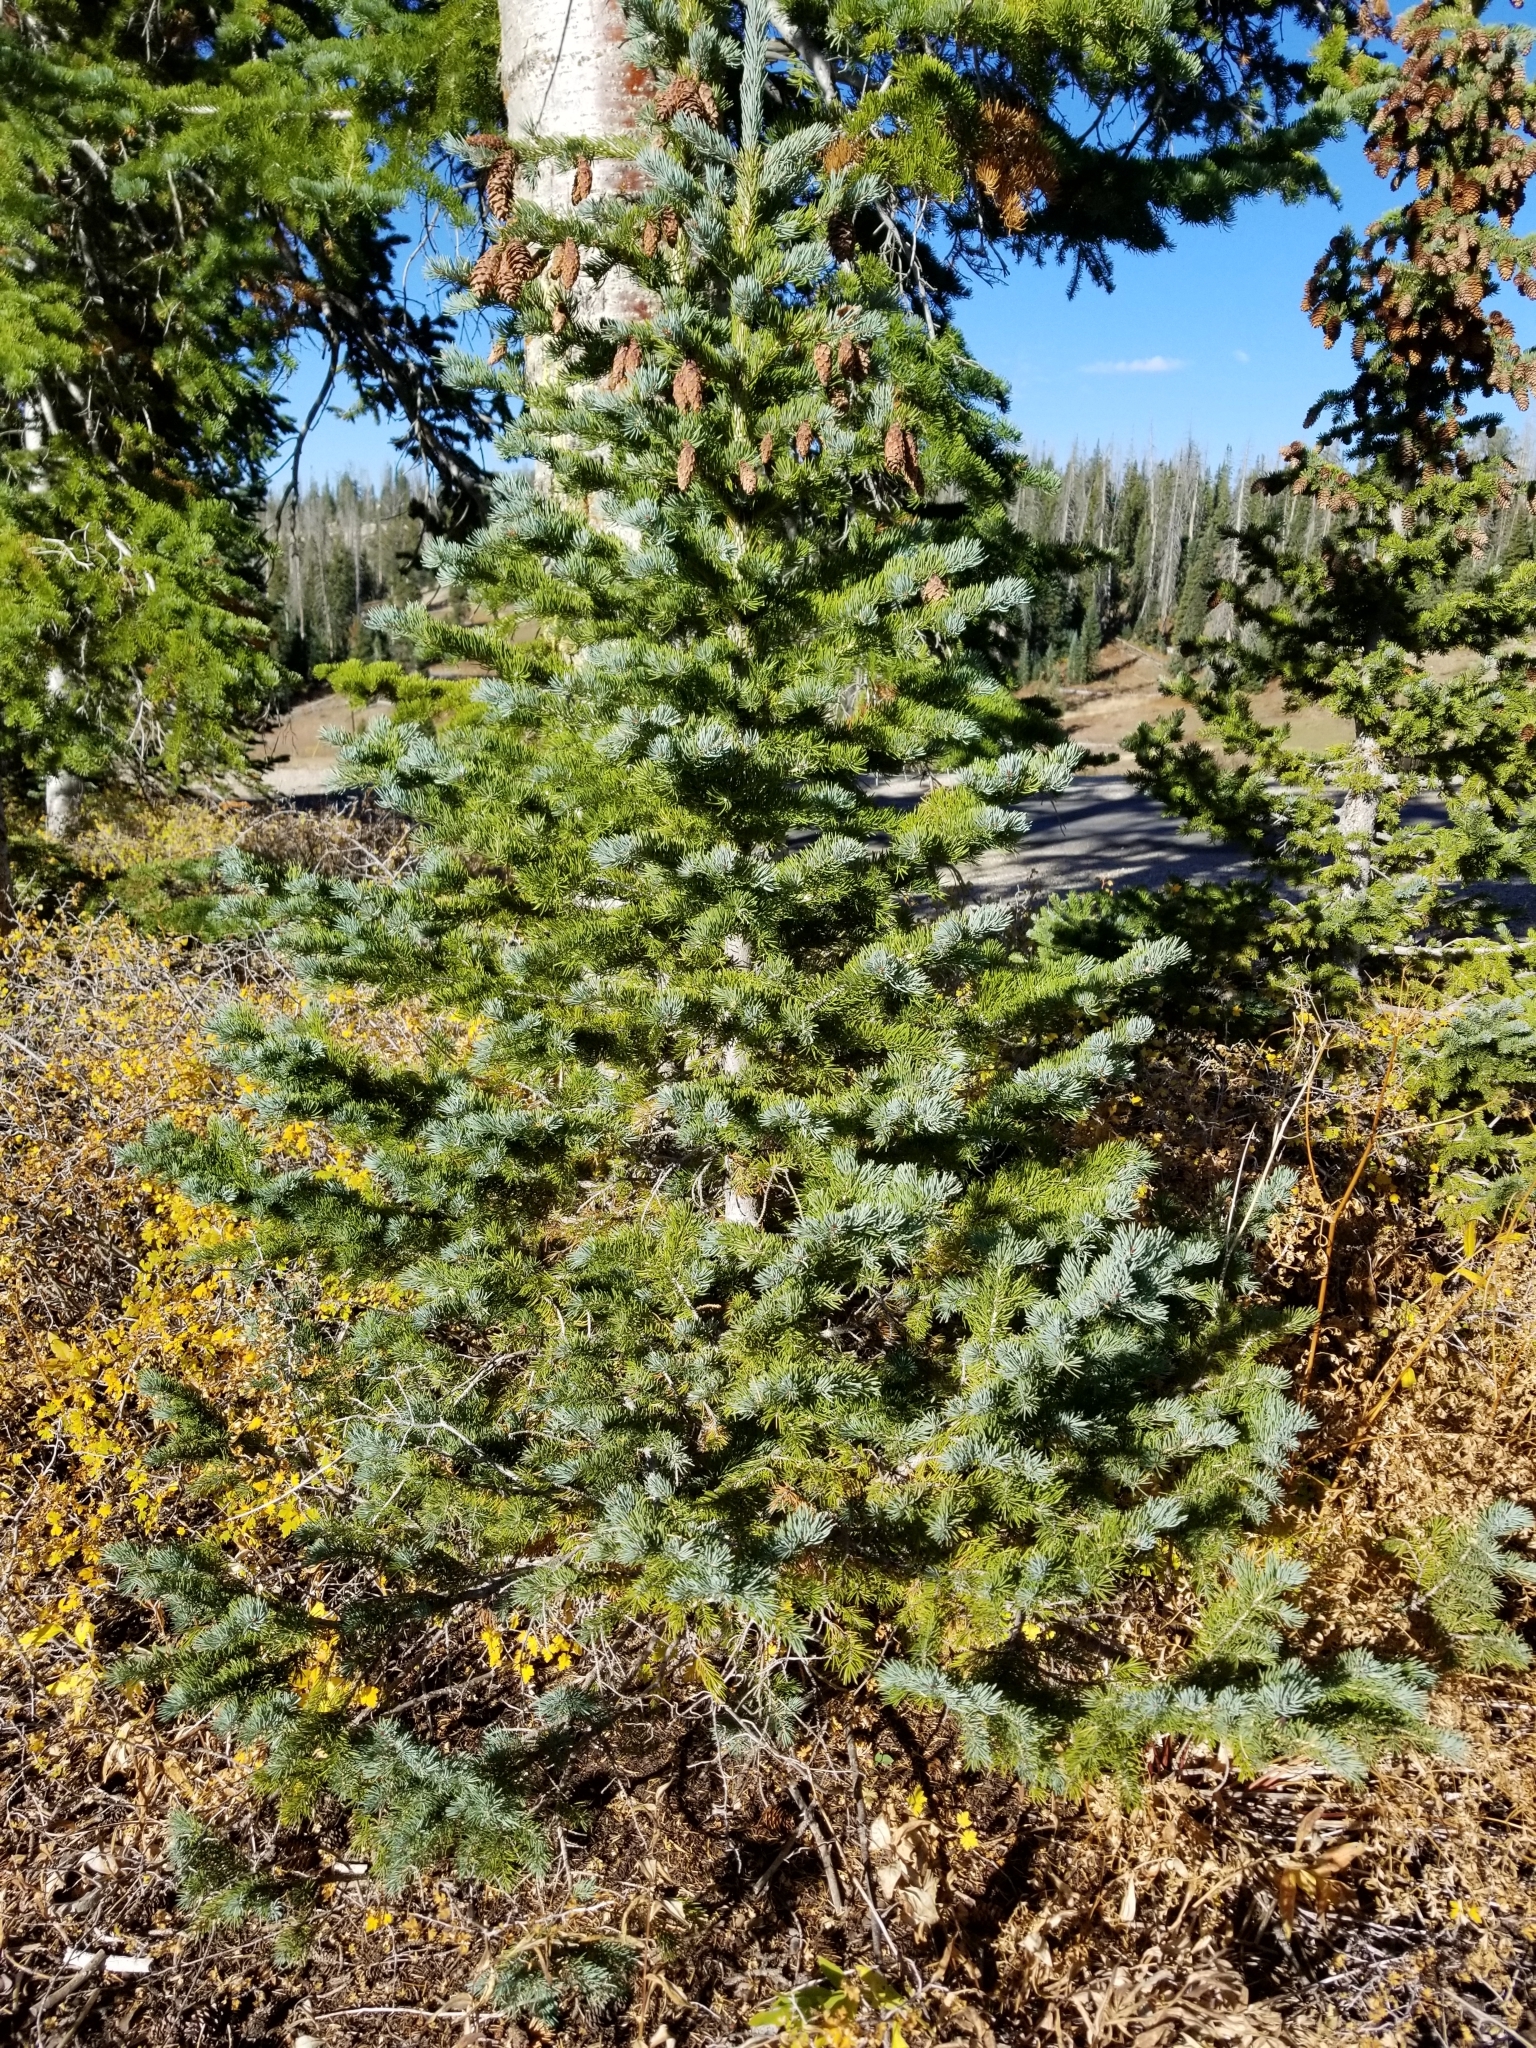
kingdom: Plantae
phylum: Tracheophyta
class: Pinopsida
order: Pinales
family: Pinaceae
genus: Picea
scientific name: Picea pungens
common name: Colorado spruce
